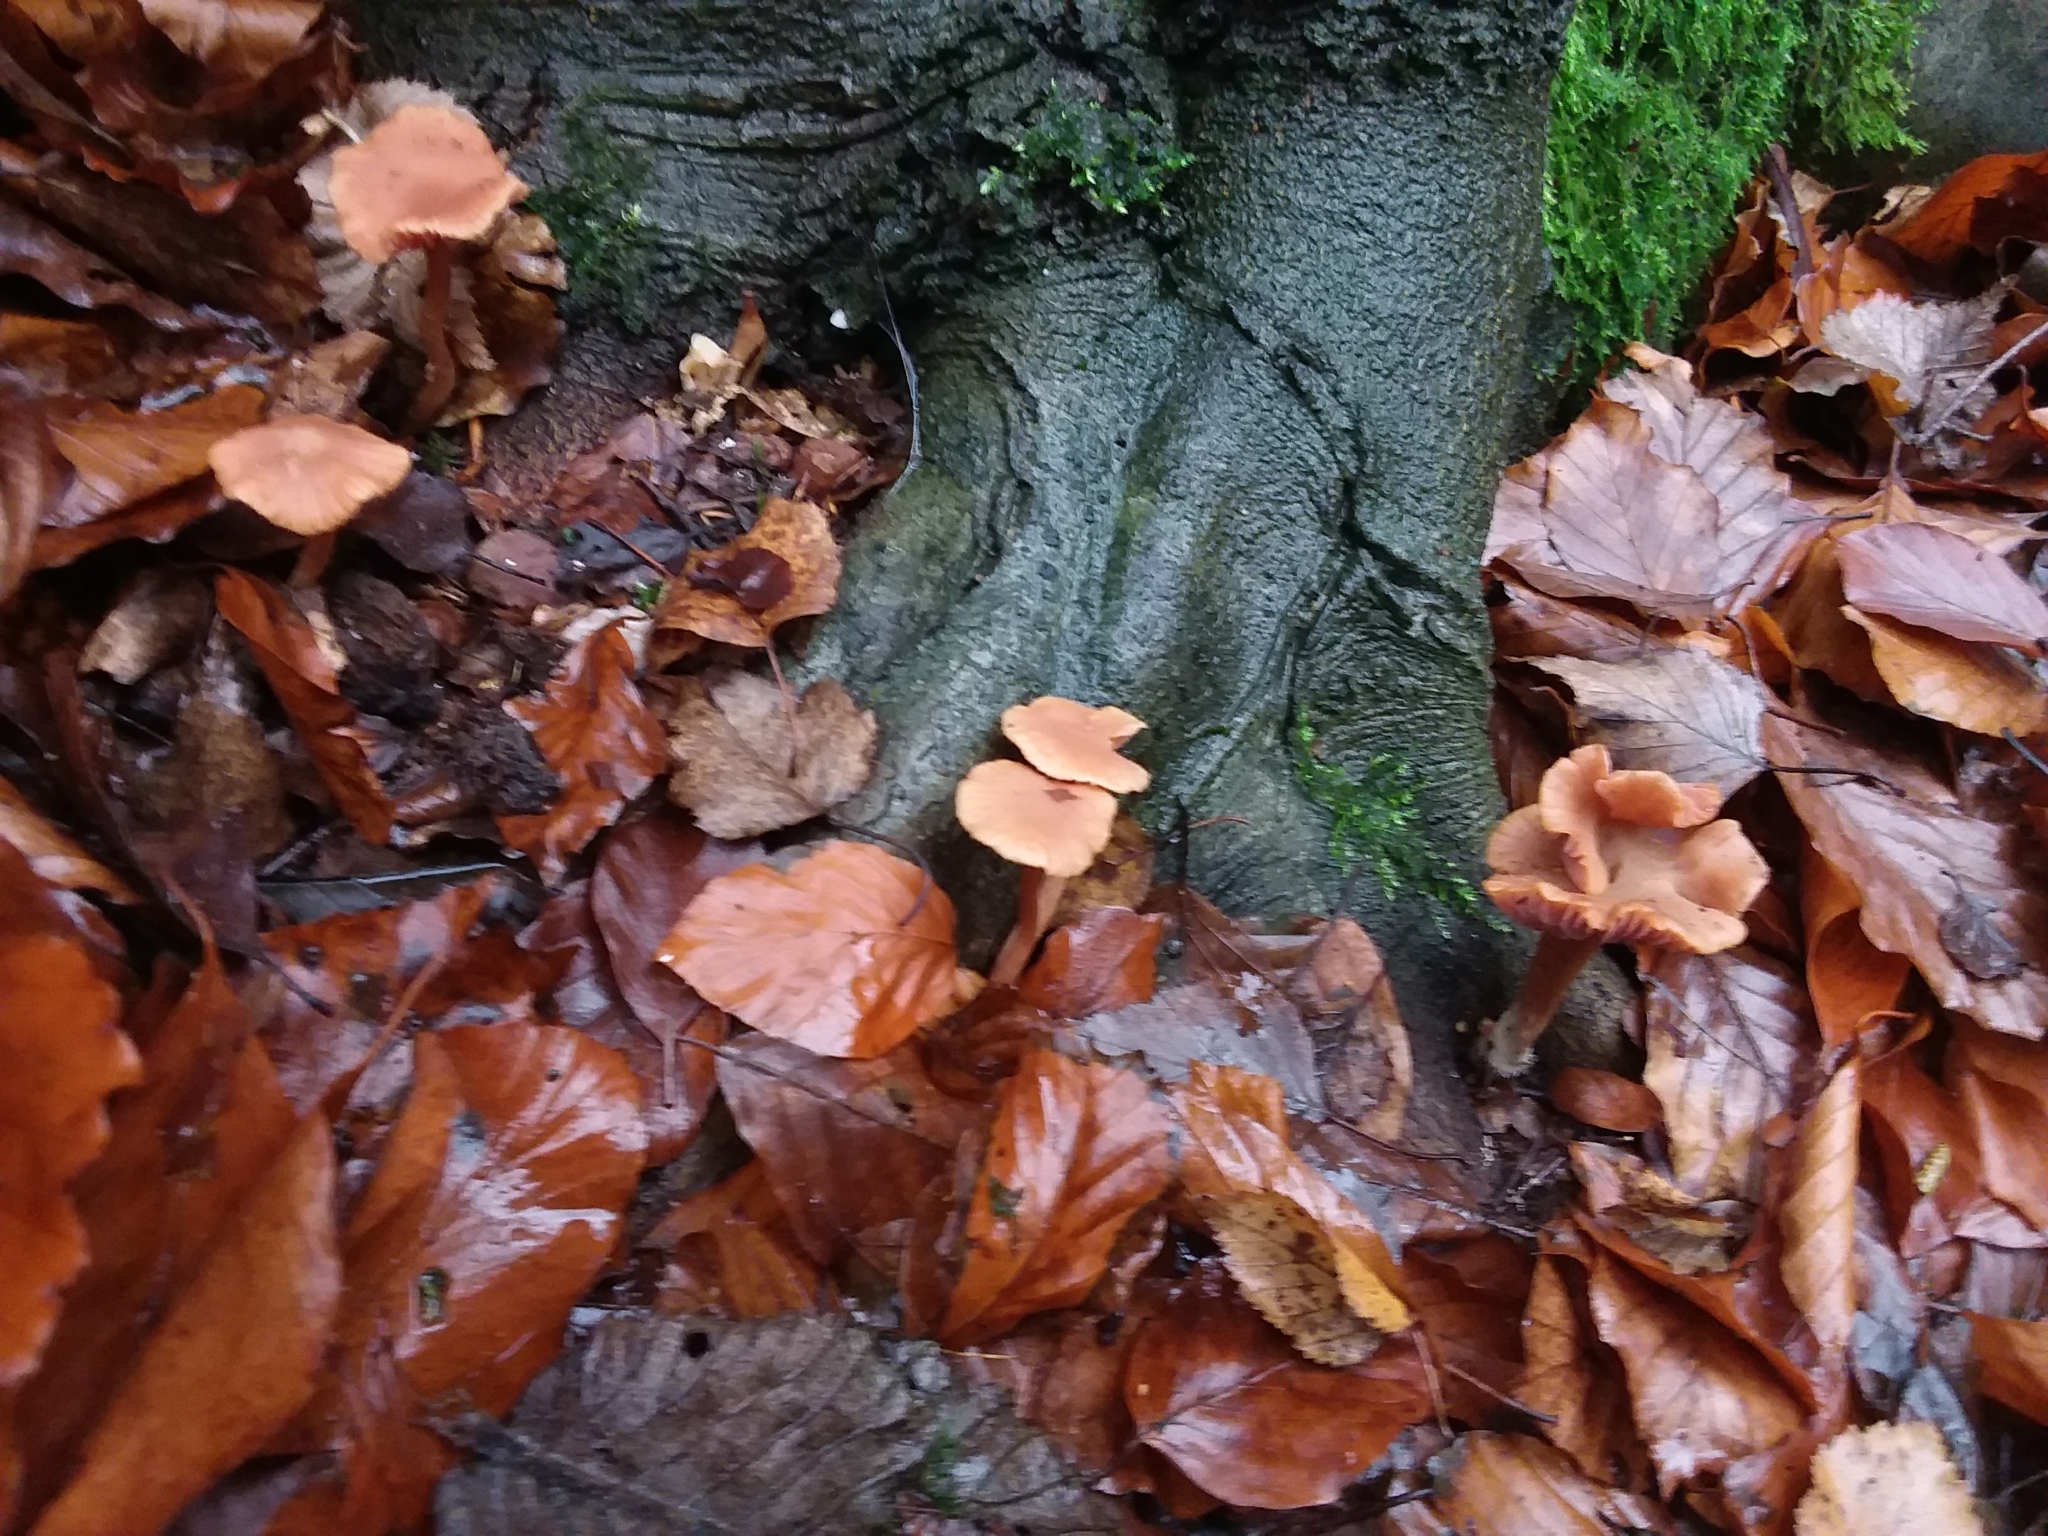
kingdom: Fungi
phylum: Basidiomycota
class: Agaricomycetes
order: Agaricales
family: Hydnangiaceae
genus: Laccaria
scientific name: Laccaria laccata
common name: Deceiver
